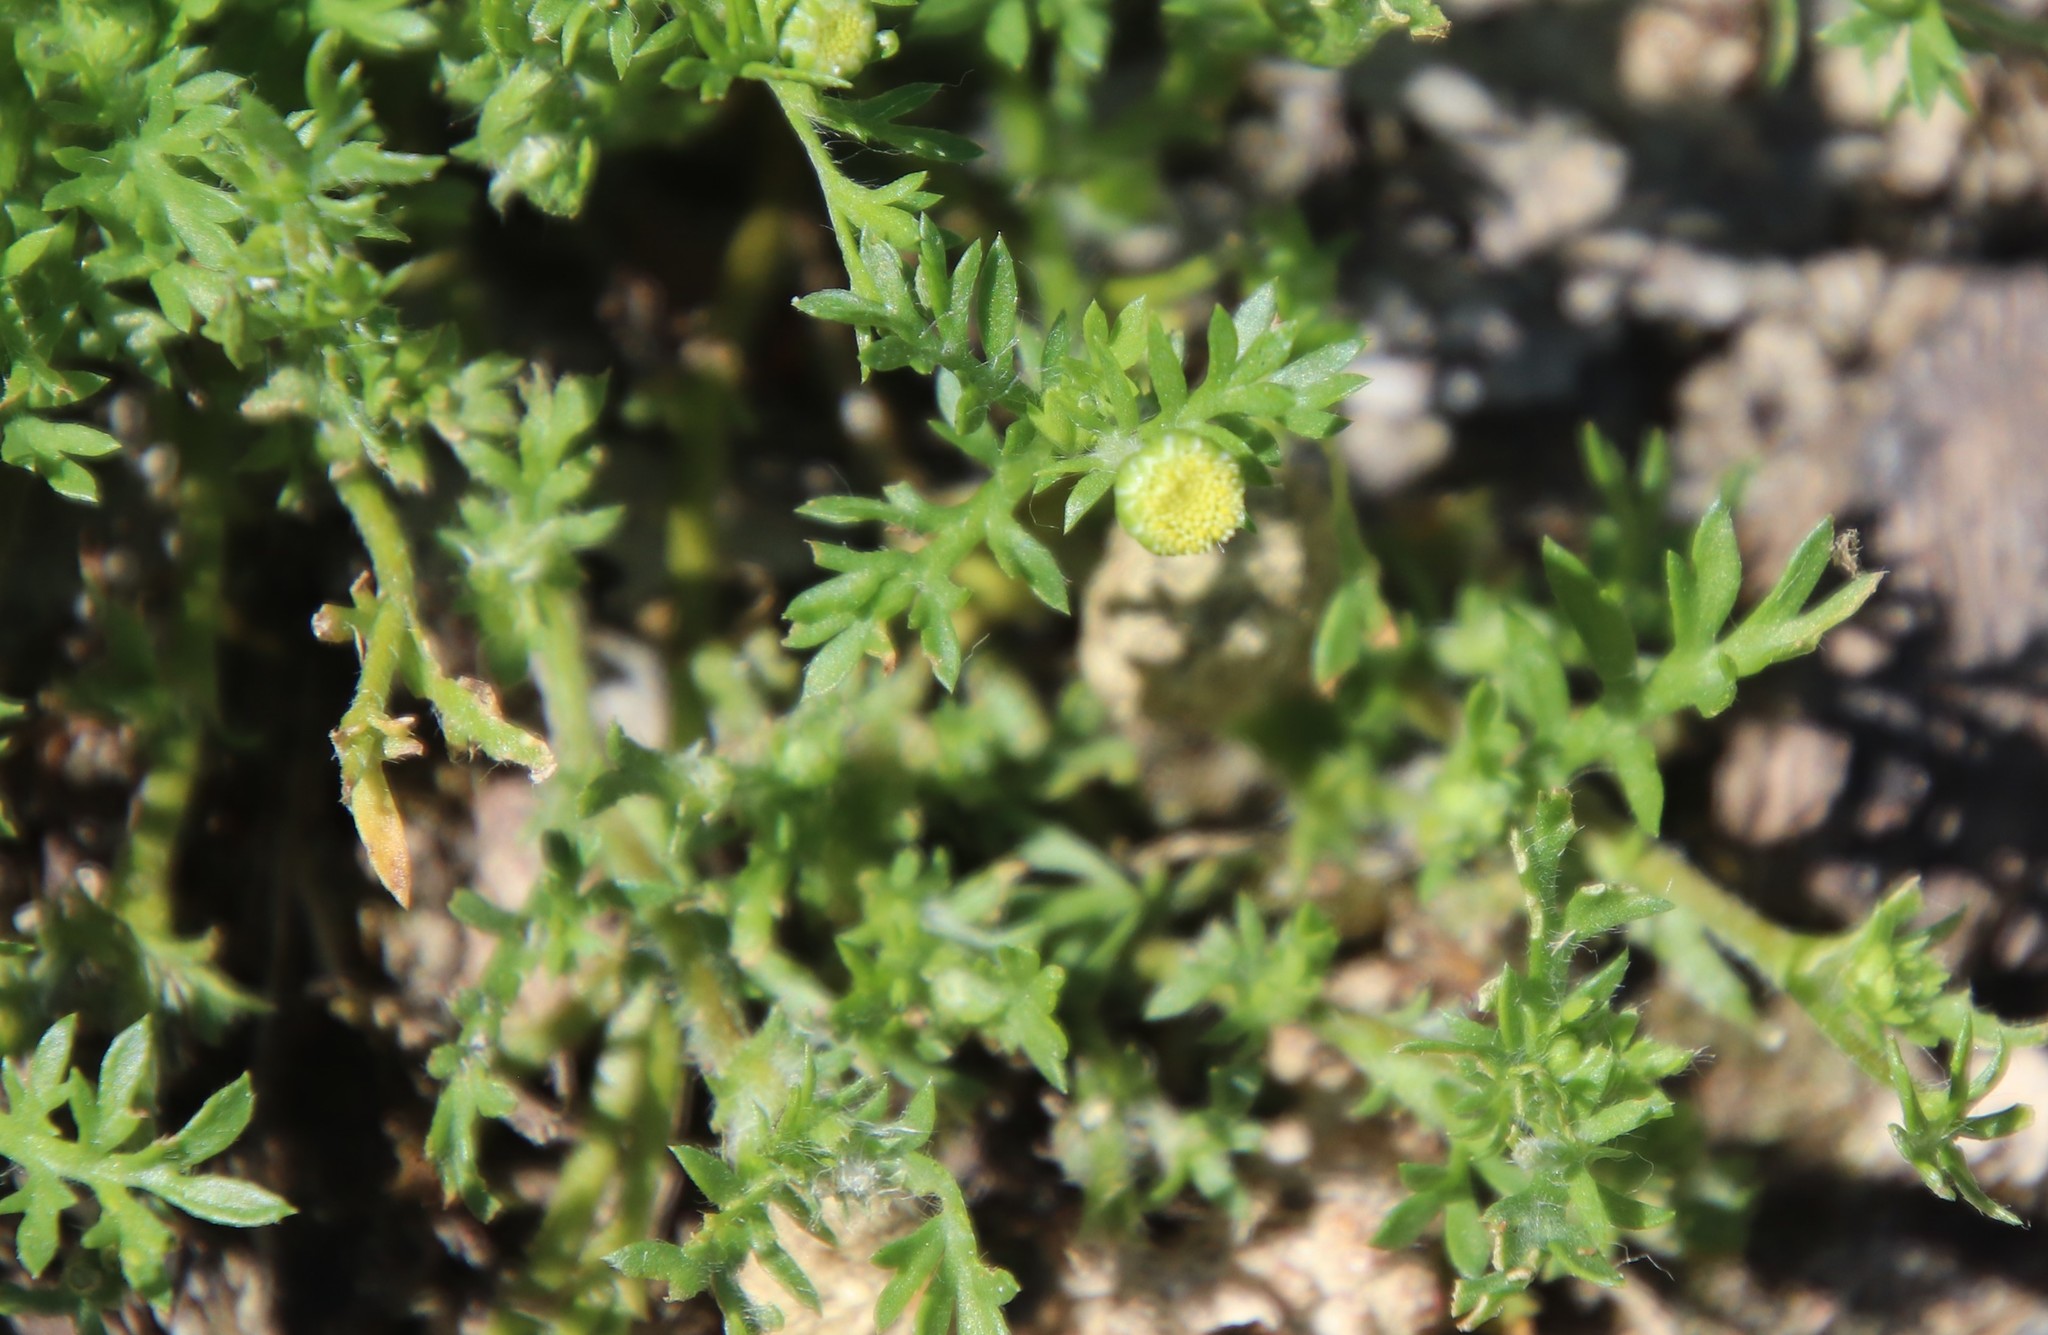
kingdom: Plantae
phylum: Tracheophyta
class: Magnoliopsida
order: Asterales
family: Asteraceae
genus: Cotula
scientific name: Cotula australis
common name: Australian waterbuttons
